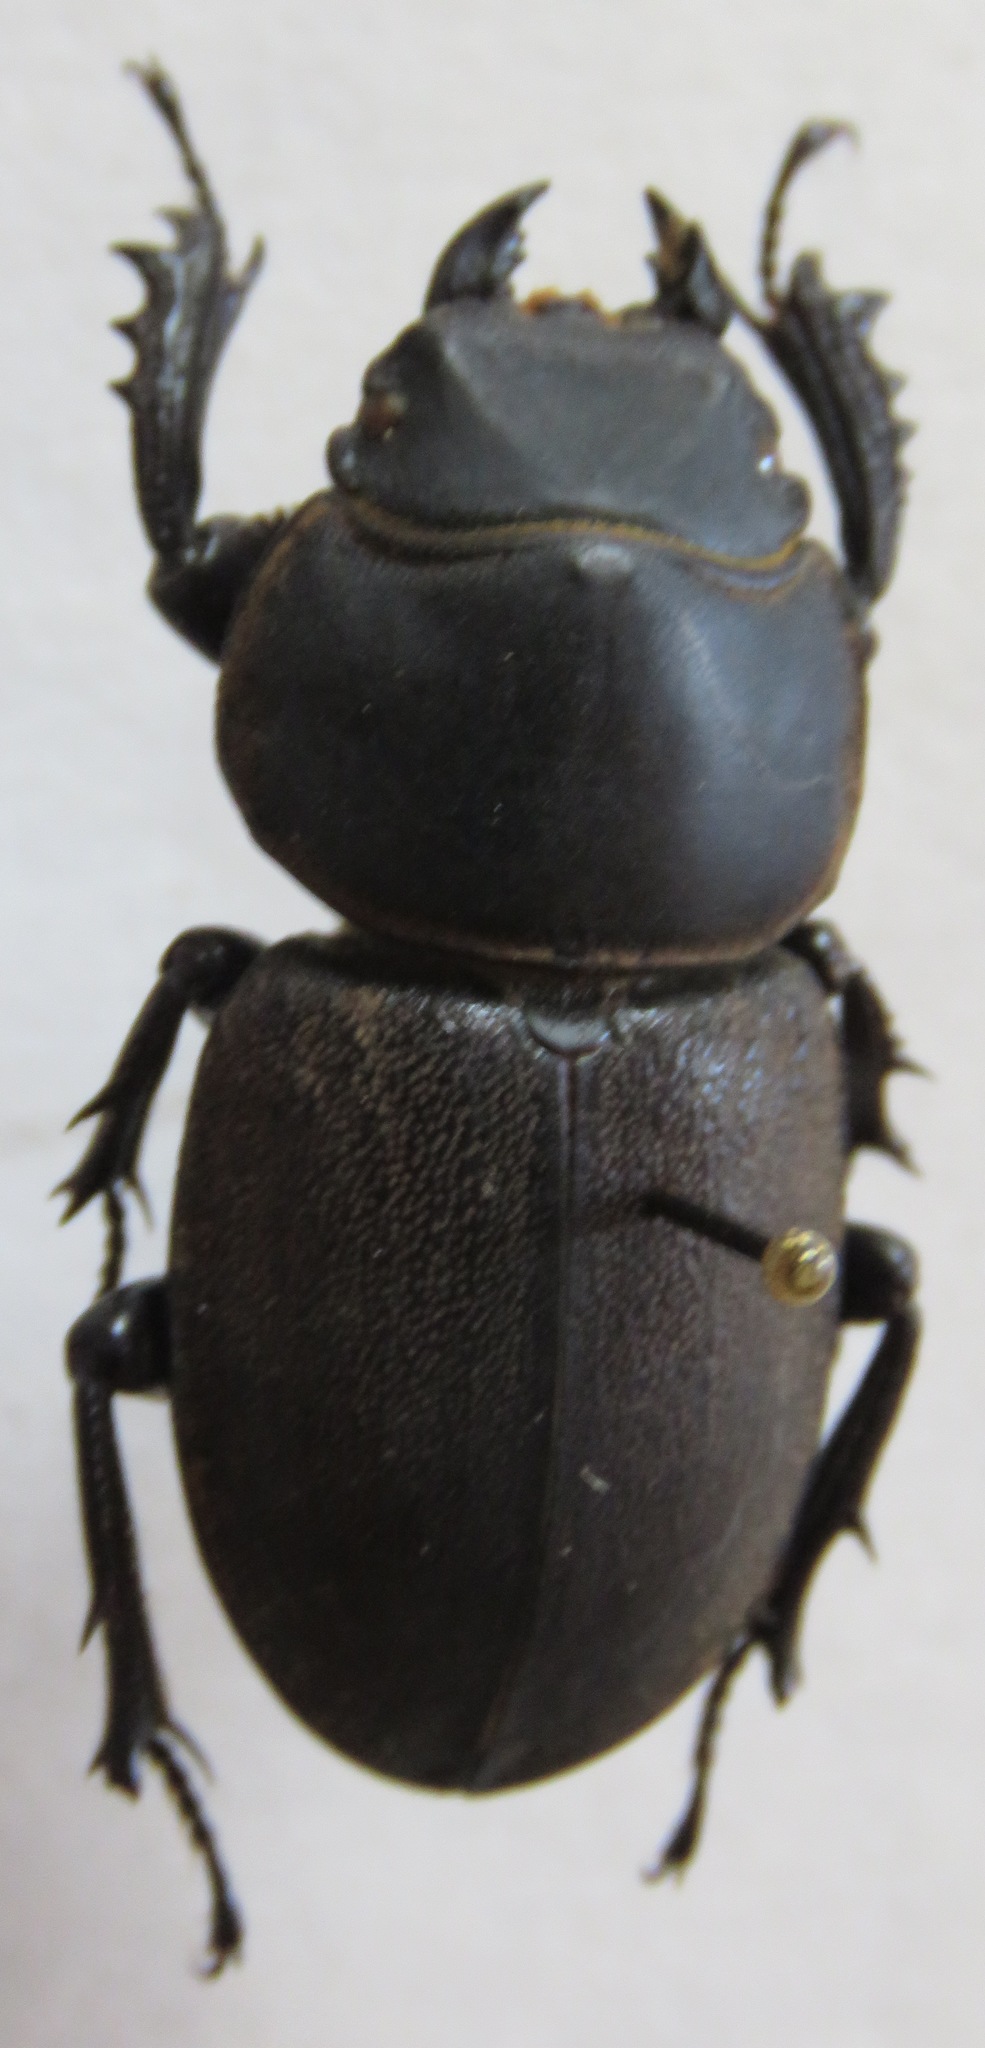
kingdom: Animalia
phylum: Arthropoda
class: Insecta
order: Coleoptera
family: Lucanidae
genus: Apterodorcus
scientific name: Apterodorcus bacchus
